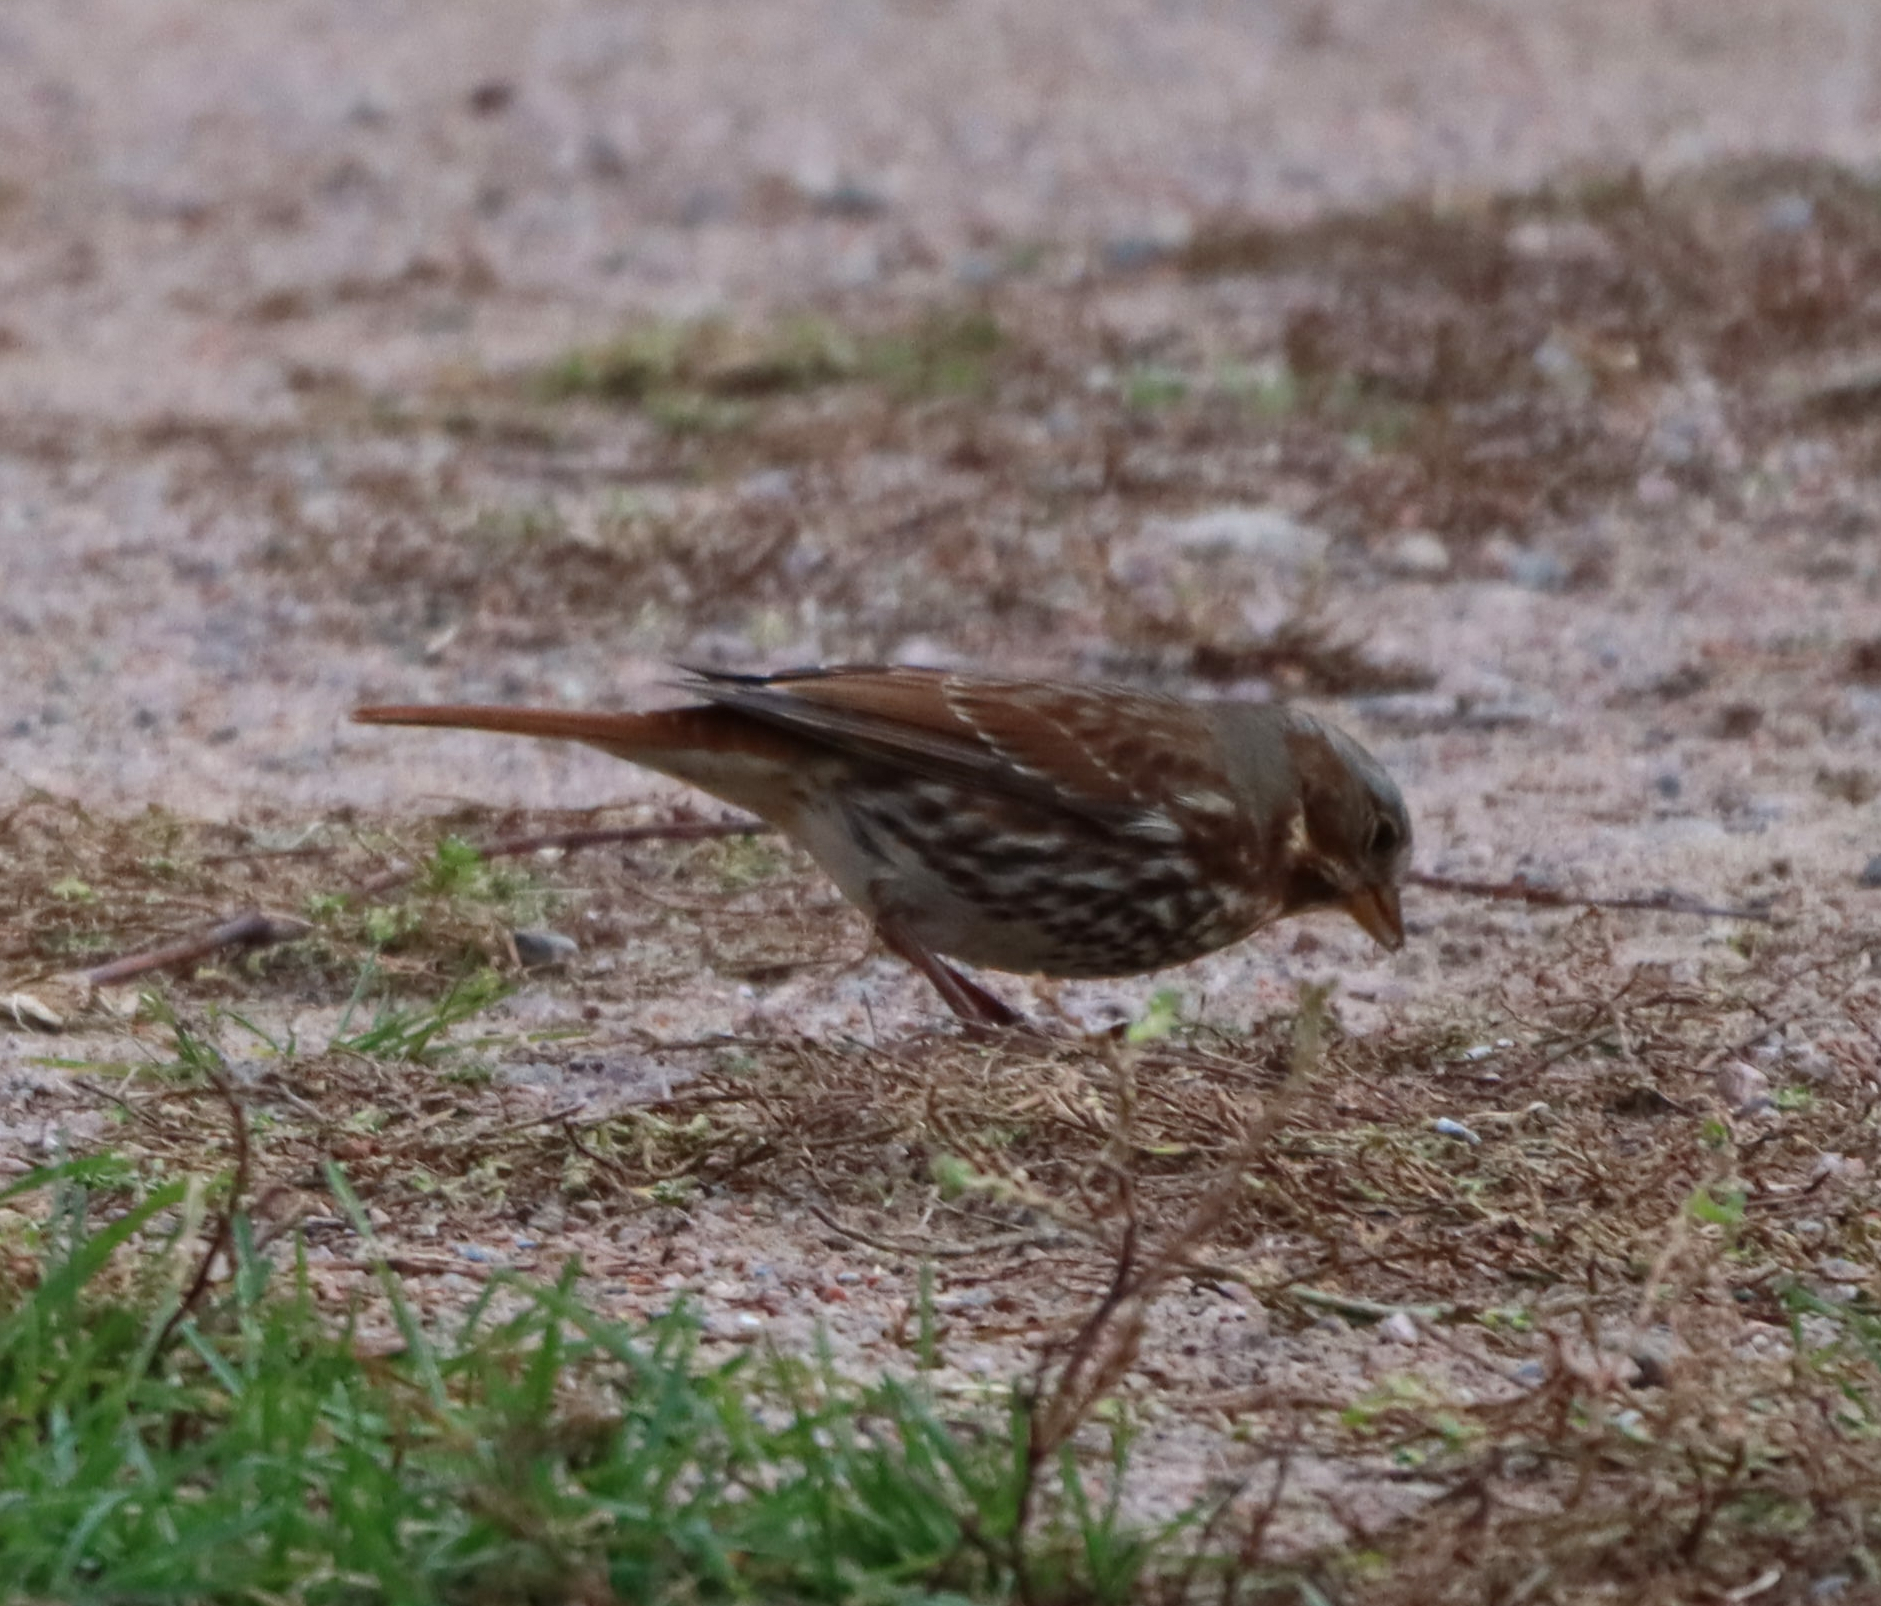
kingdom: Animalia
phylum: Chordata
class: Aves
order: Passeriformes
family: Passerellidae
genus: Passerella
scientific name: Passerella iliaca
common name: Fox sparrow
